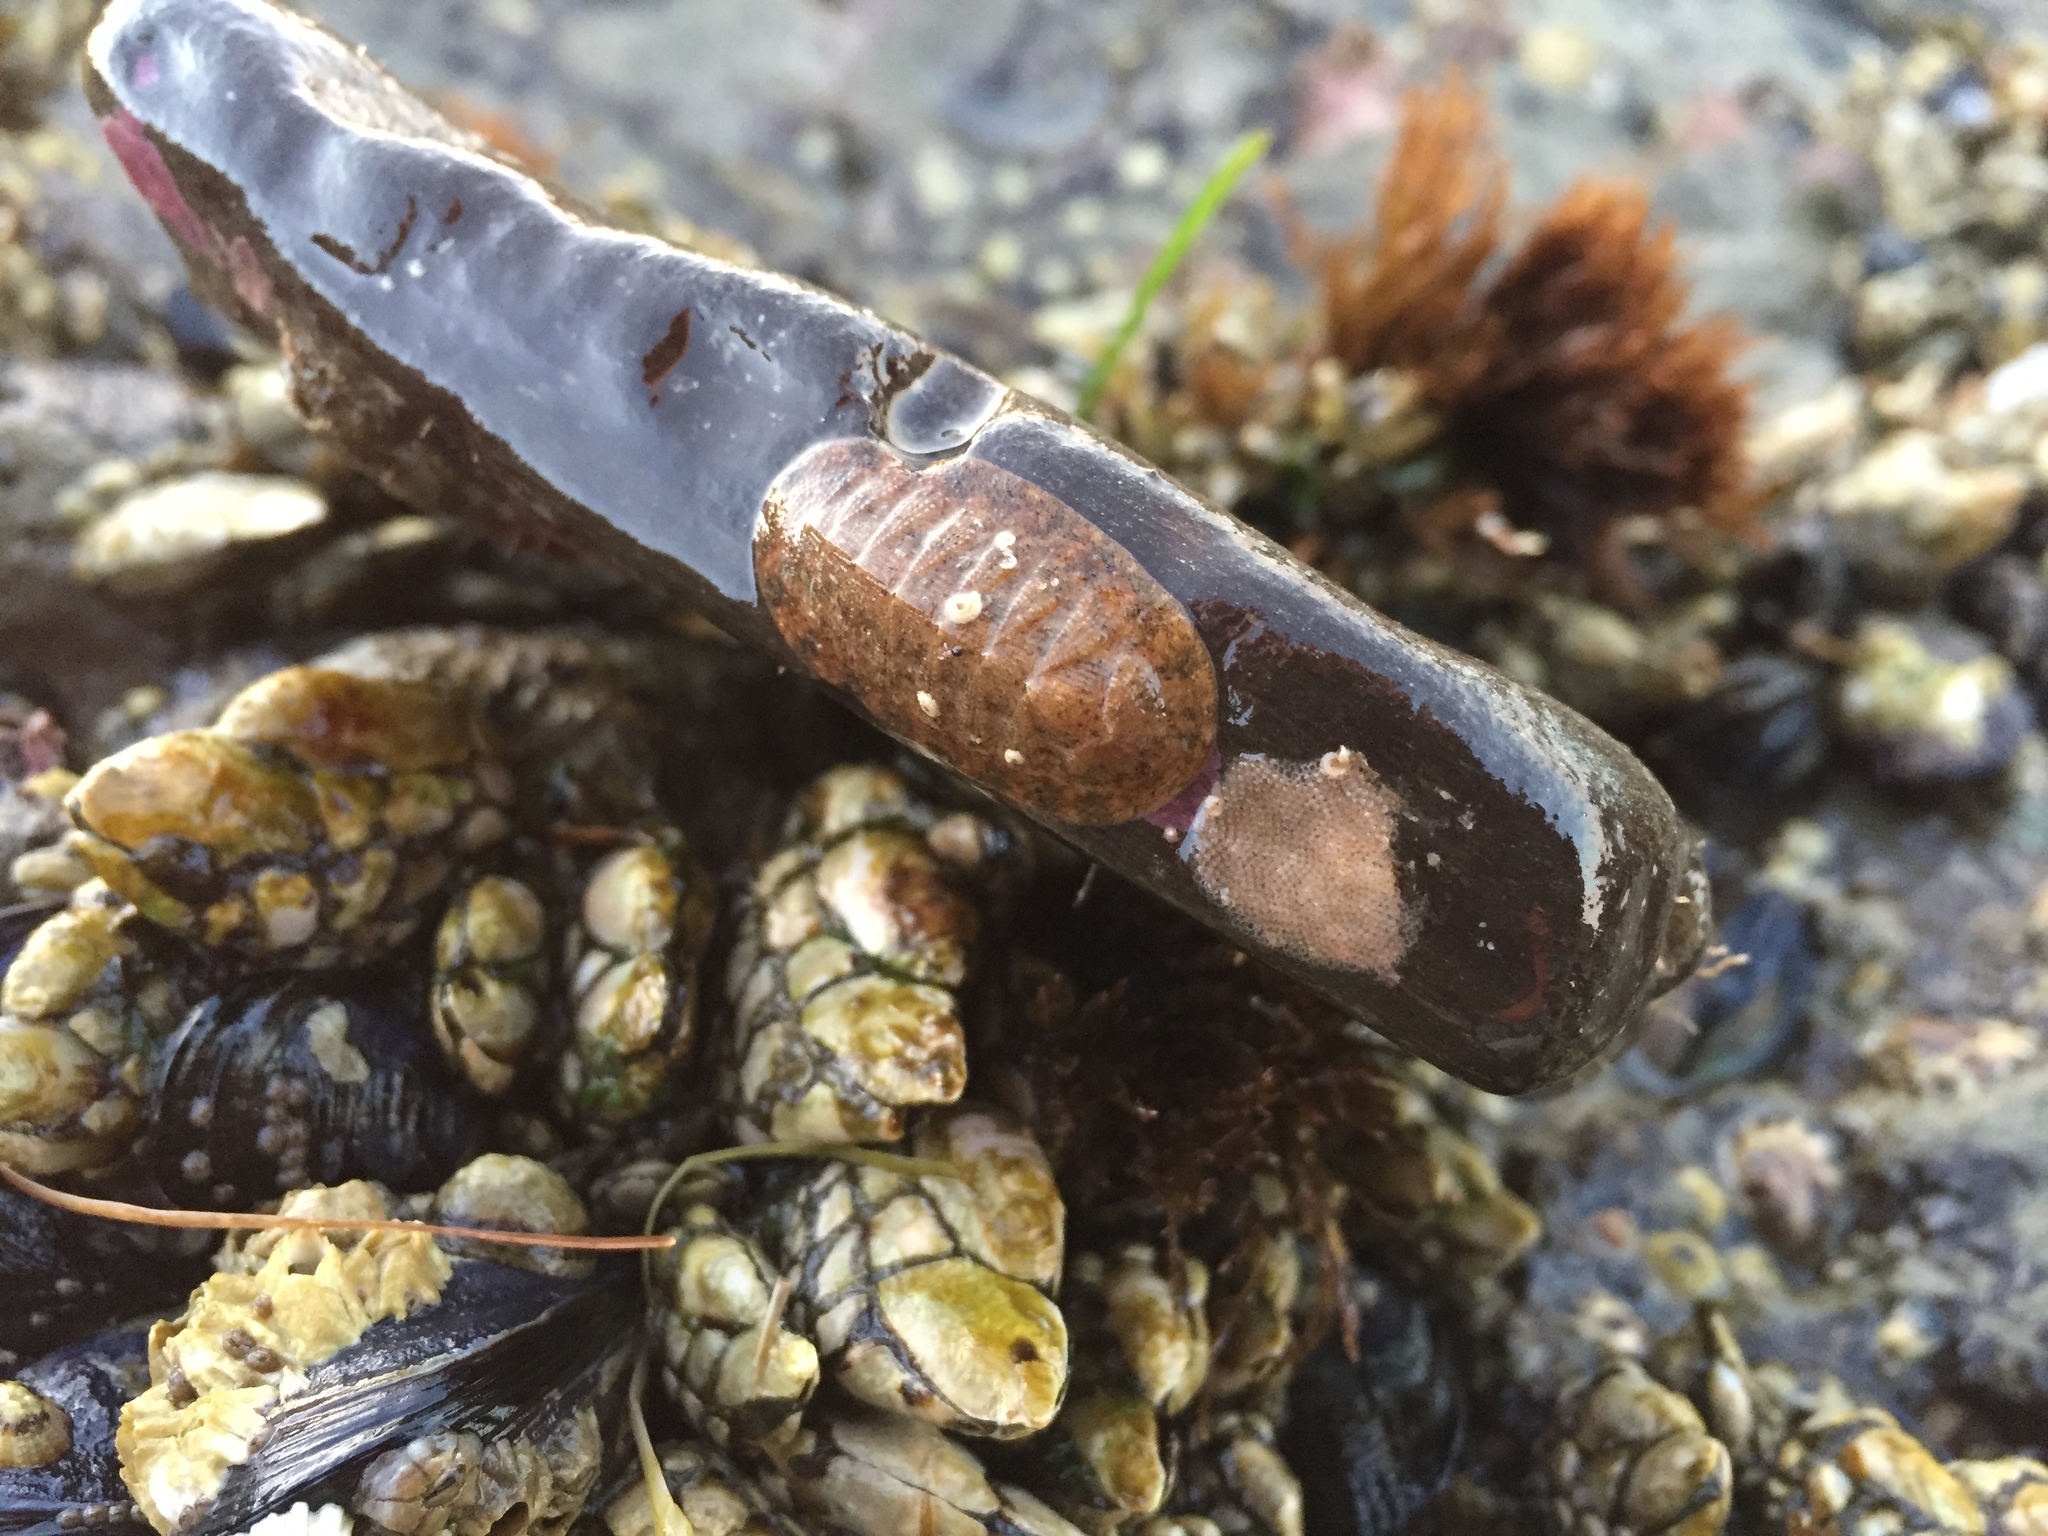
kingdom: Animalia
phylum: Mollusca
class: Polyplacophora
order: Chitonida
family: Ischnochitonidae
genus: Lepidozona
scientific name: Lepidozona pectinulata
